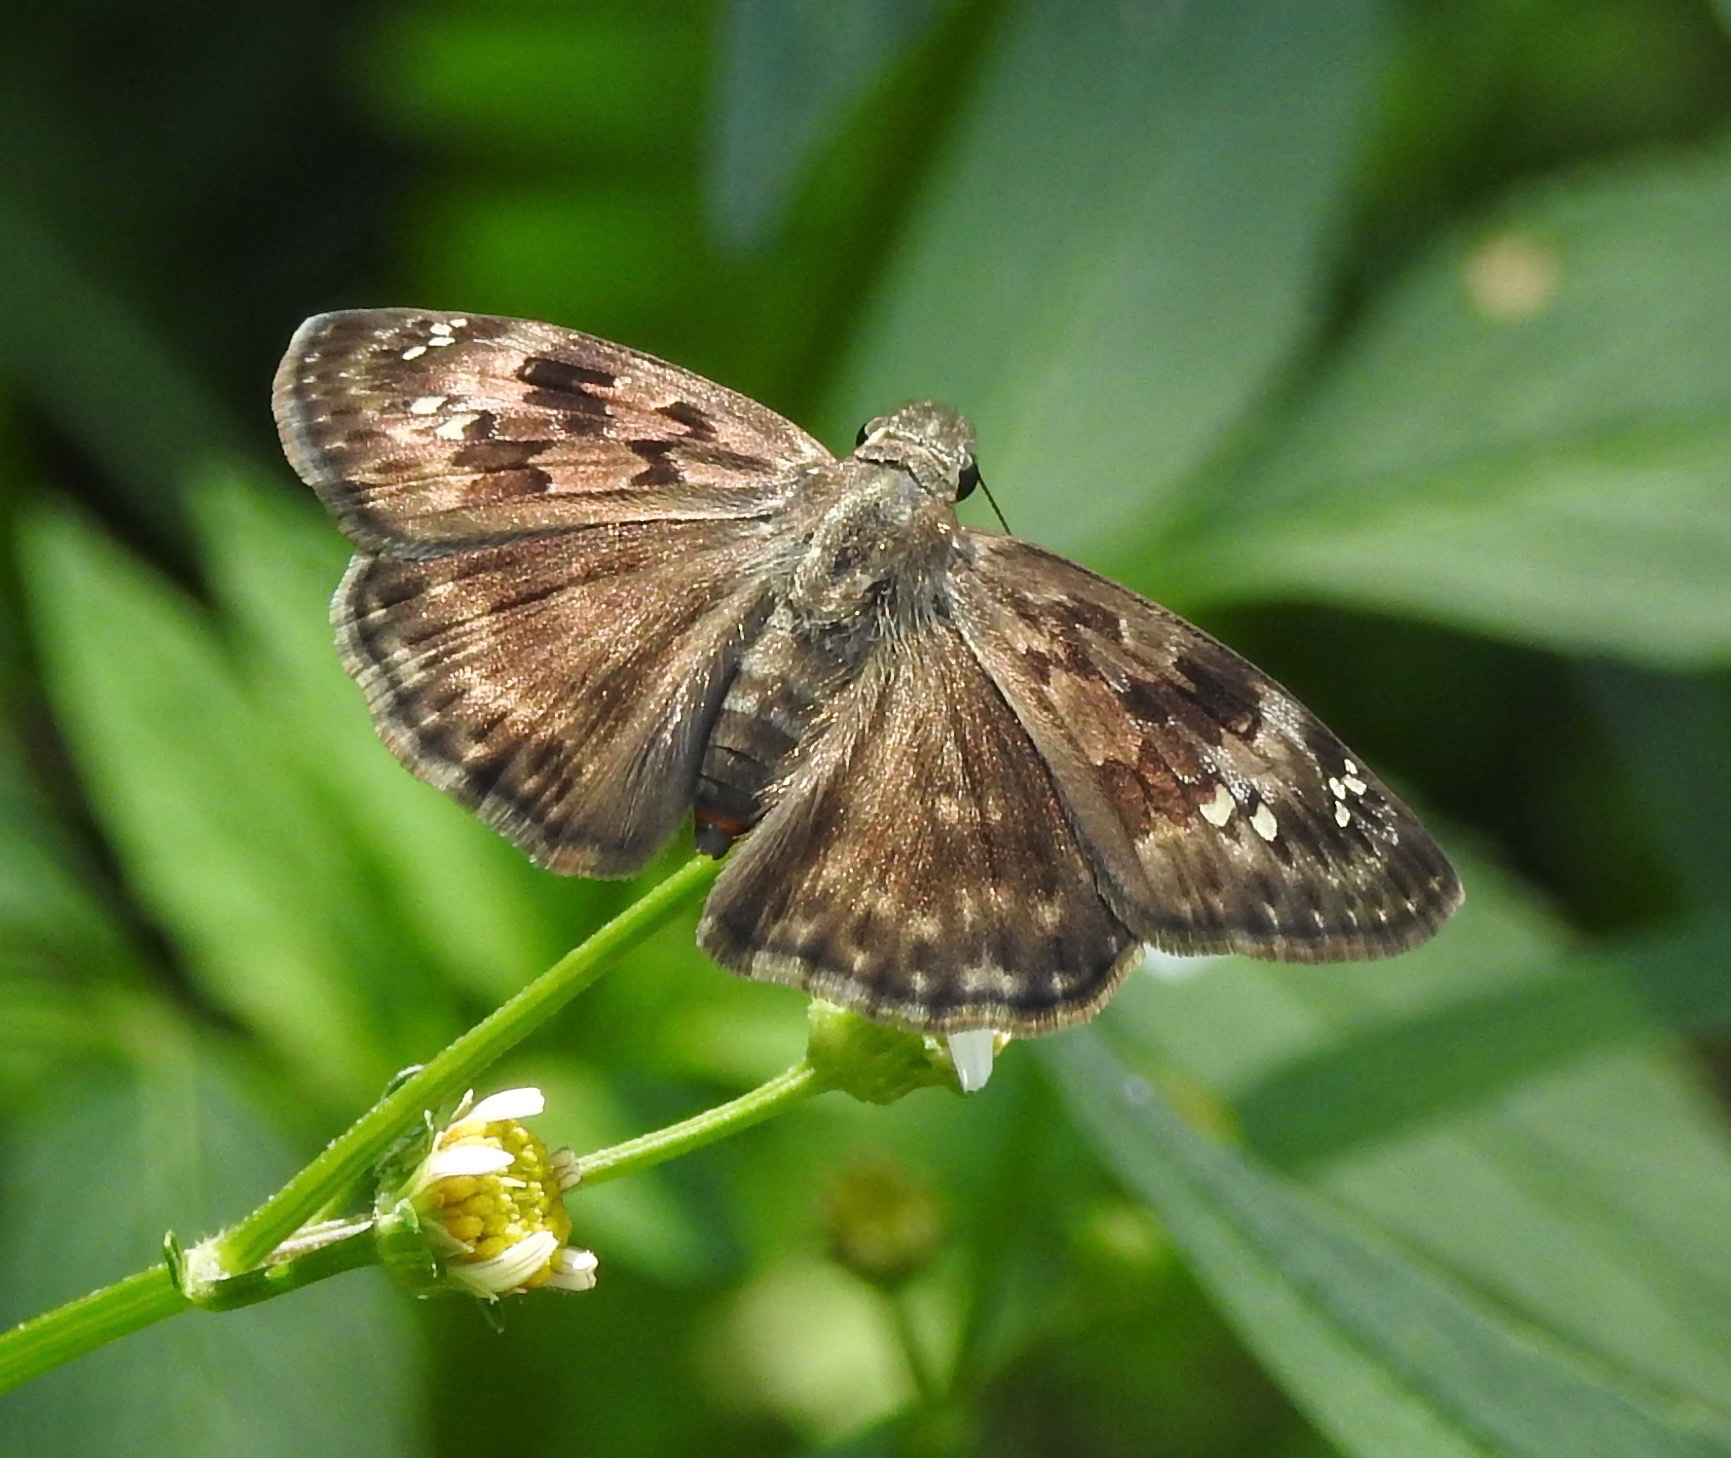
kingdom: Animalia
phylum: Arthropoda
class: Insecta
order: Lepidoptera
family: Hesperiidae
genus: Erynnis
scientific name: Erynnis horatius
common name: Horace's duskywing
